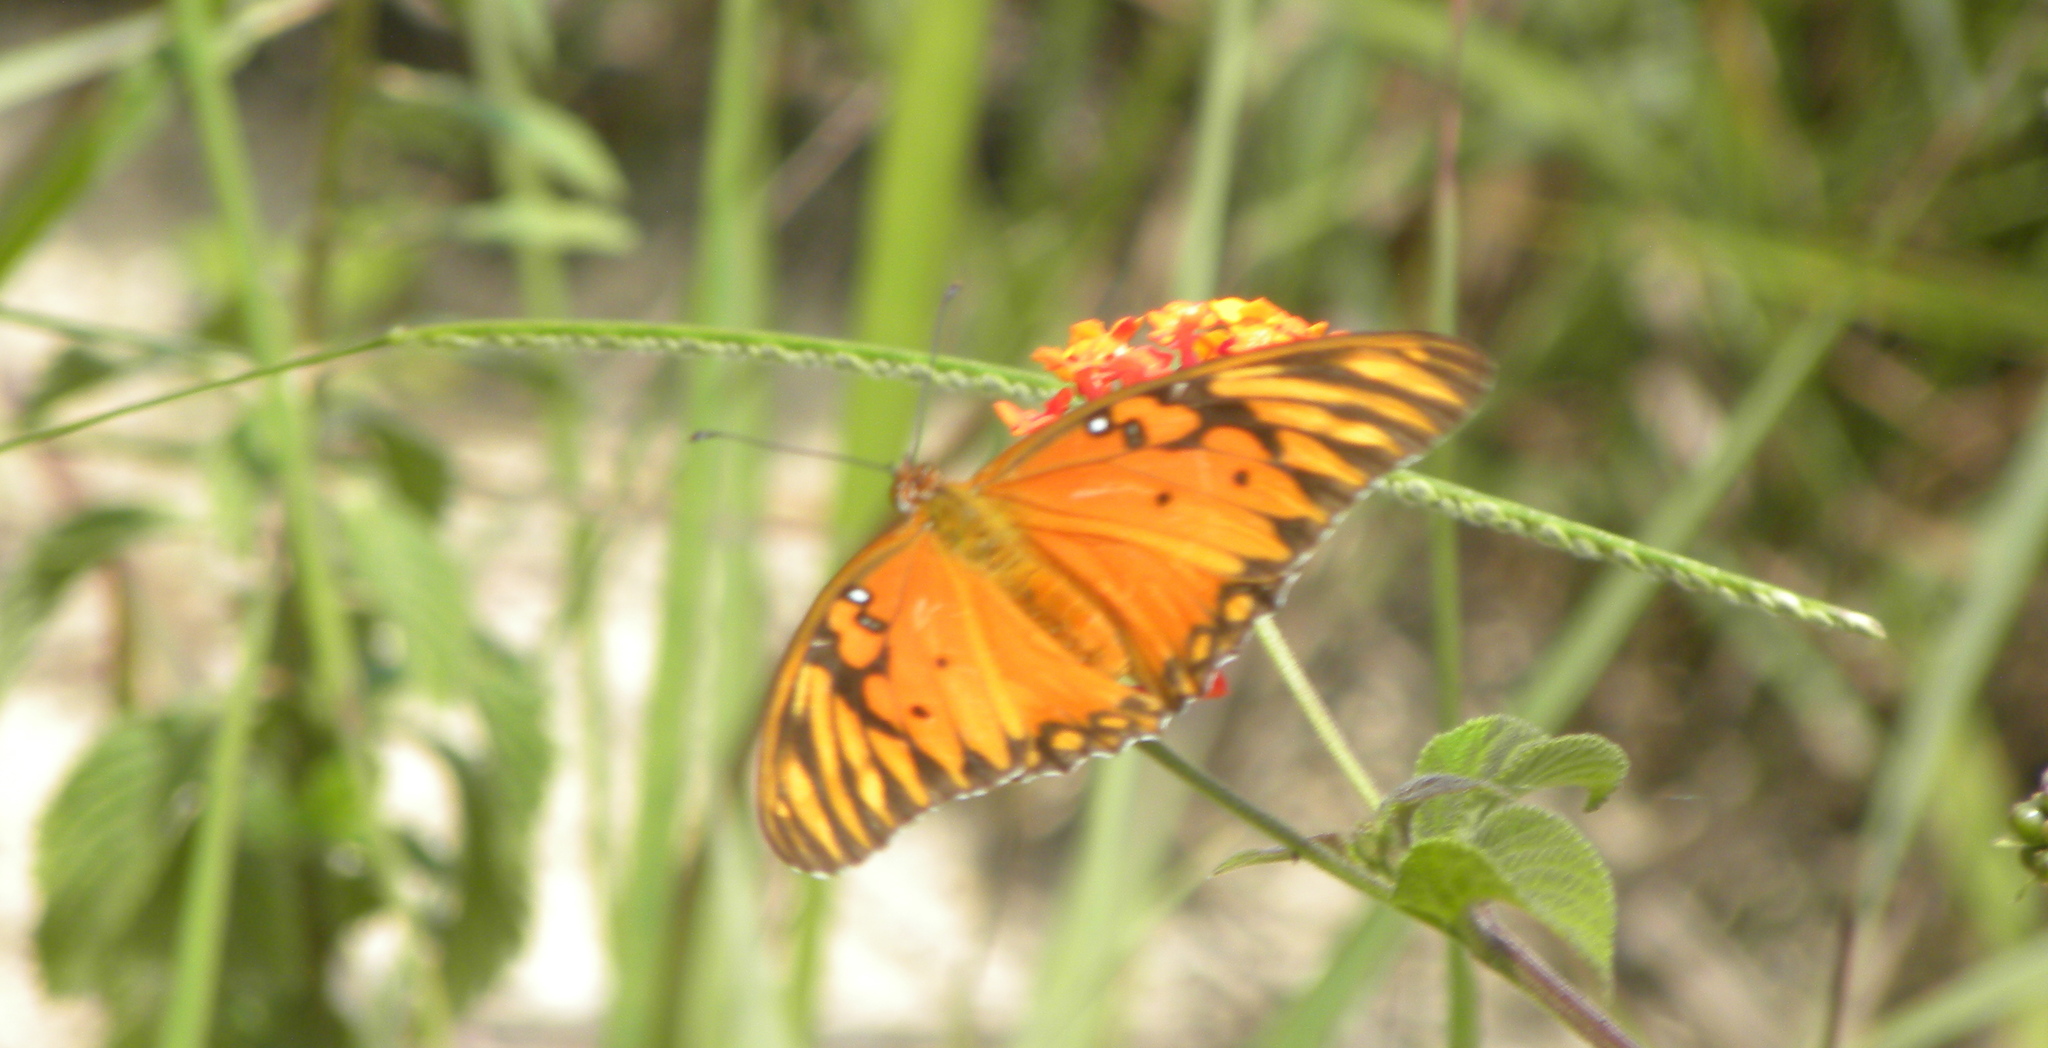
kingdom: Animalia
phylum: Arthropoda
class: Insecta
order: Lepidoptera
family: Nymphalidae
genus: Dione
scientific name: Dione vanillae
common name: Gulf fritillary
